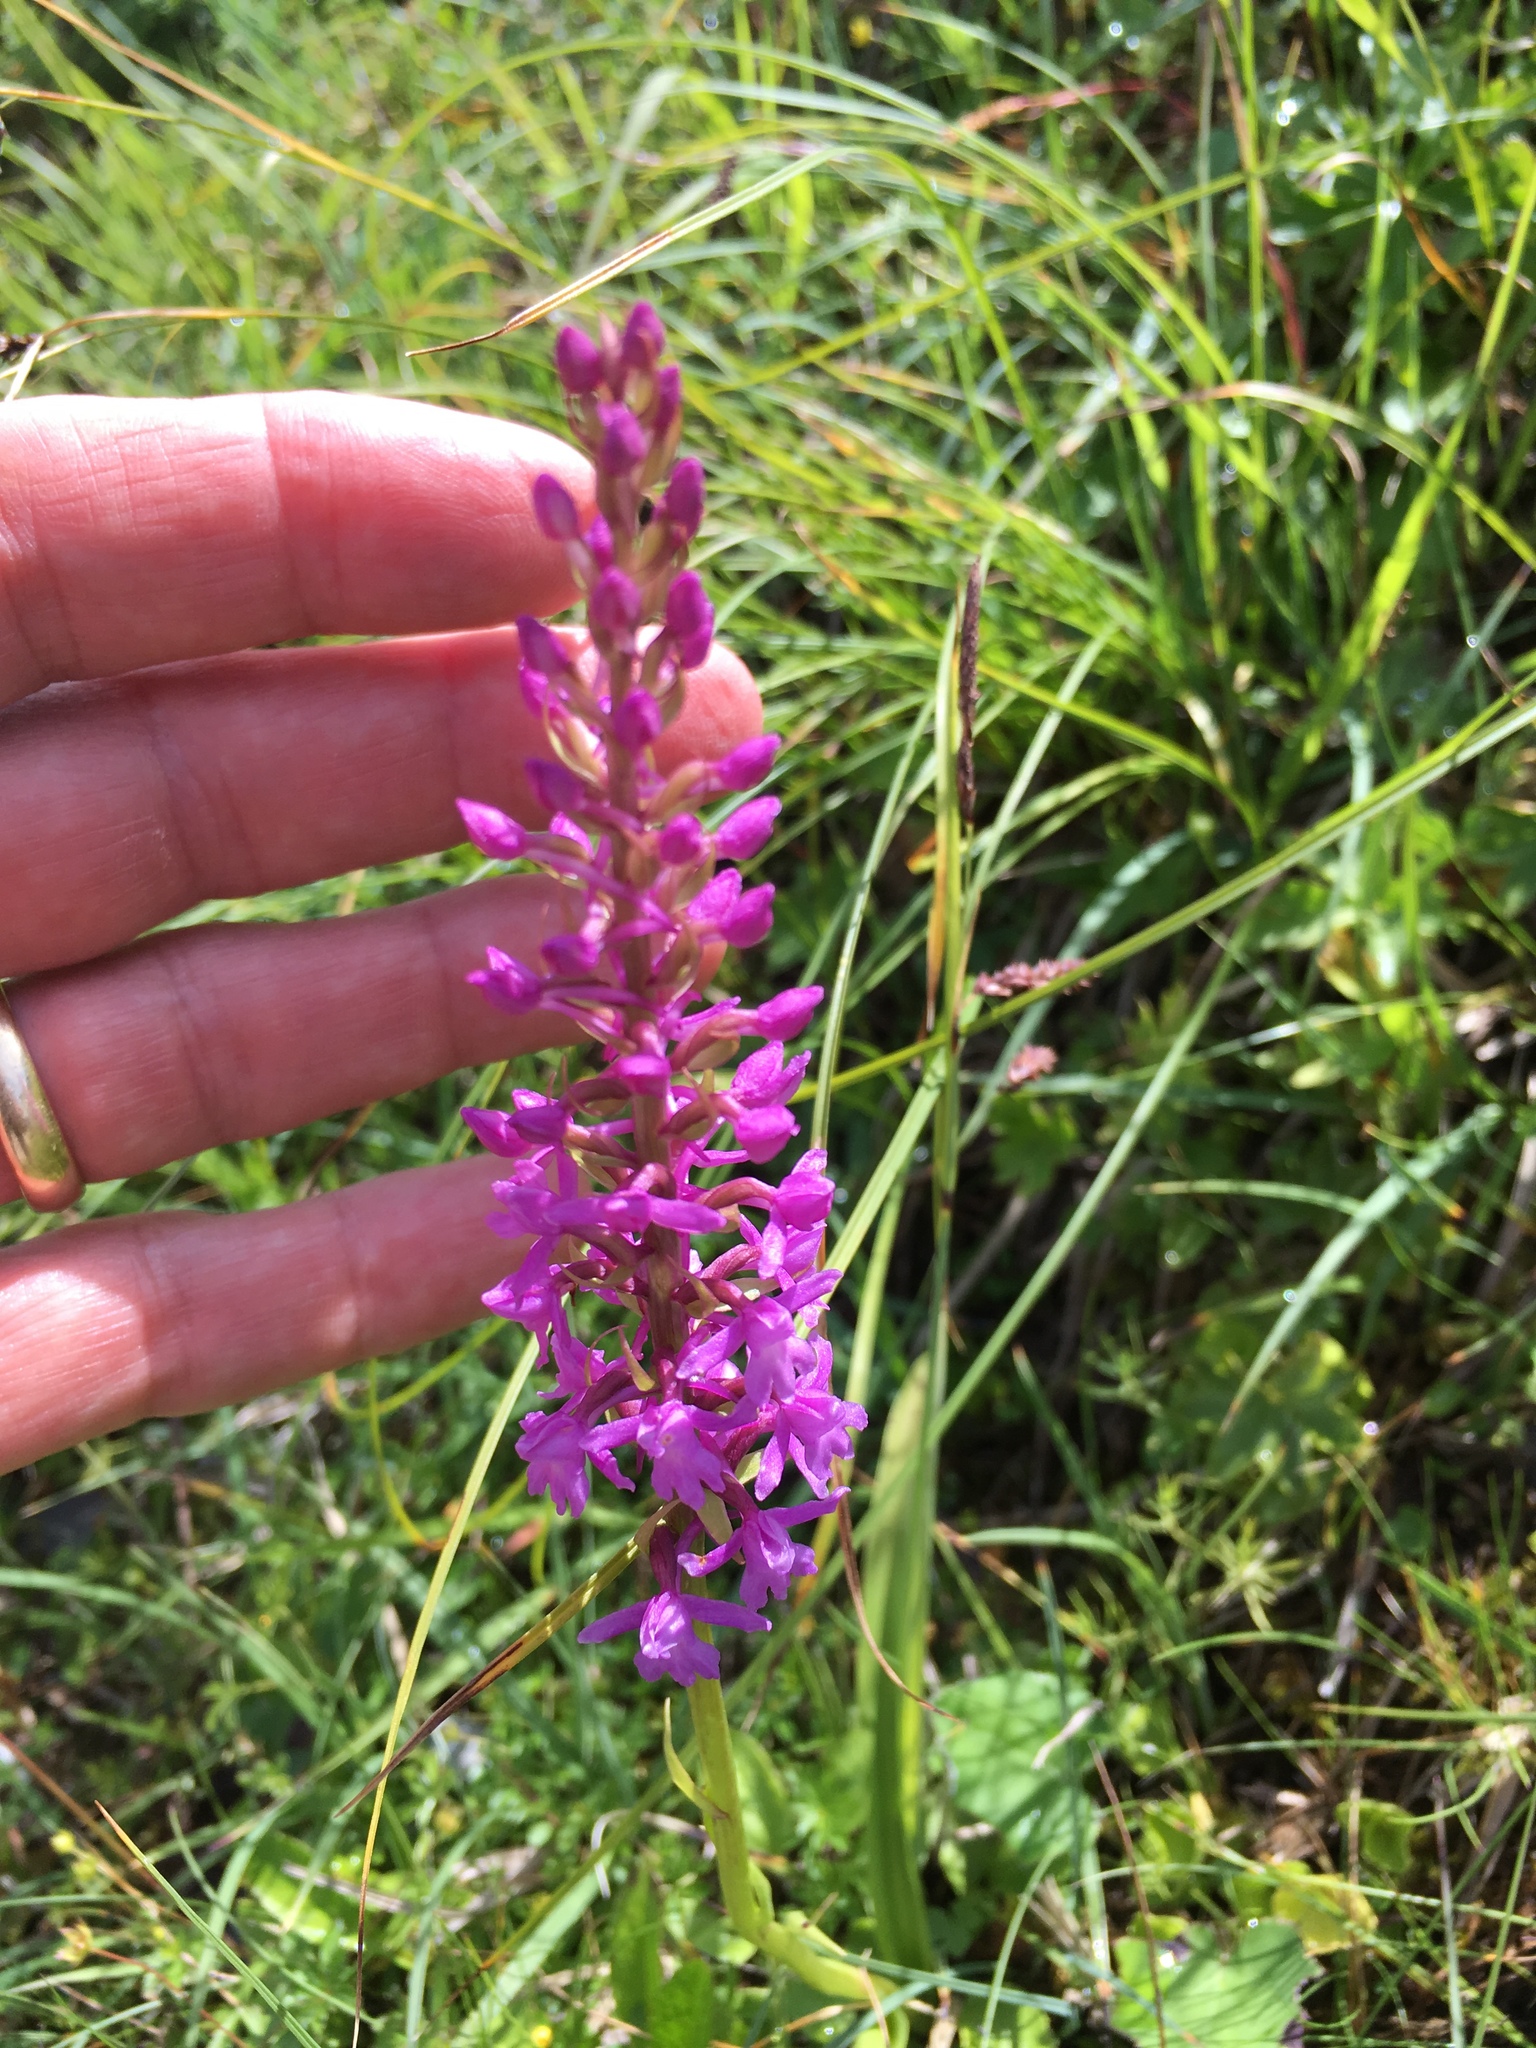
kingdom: Plantae
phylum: Tracheophyta
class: Liliopsida
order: Asparagales
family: Orchidaceae
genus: Gymnadenia
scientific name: Gymnadenia conopsea
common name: Fragrant orchid
